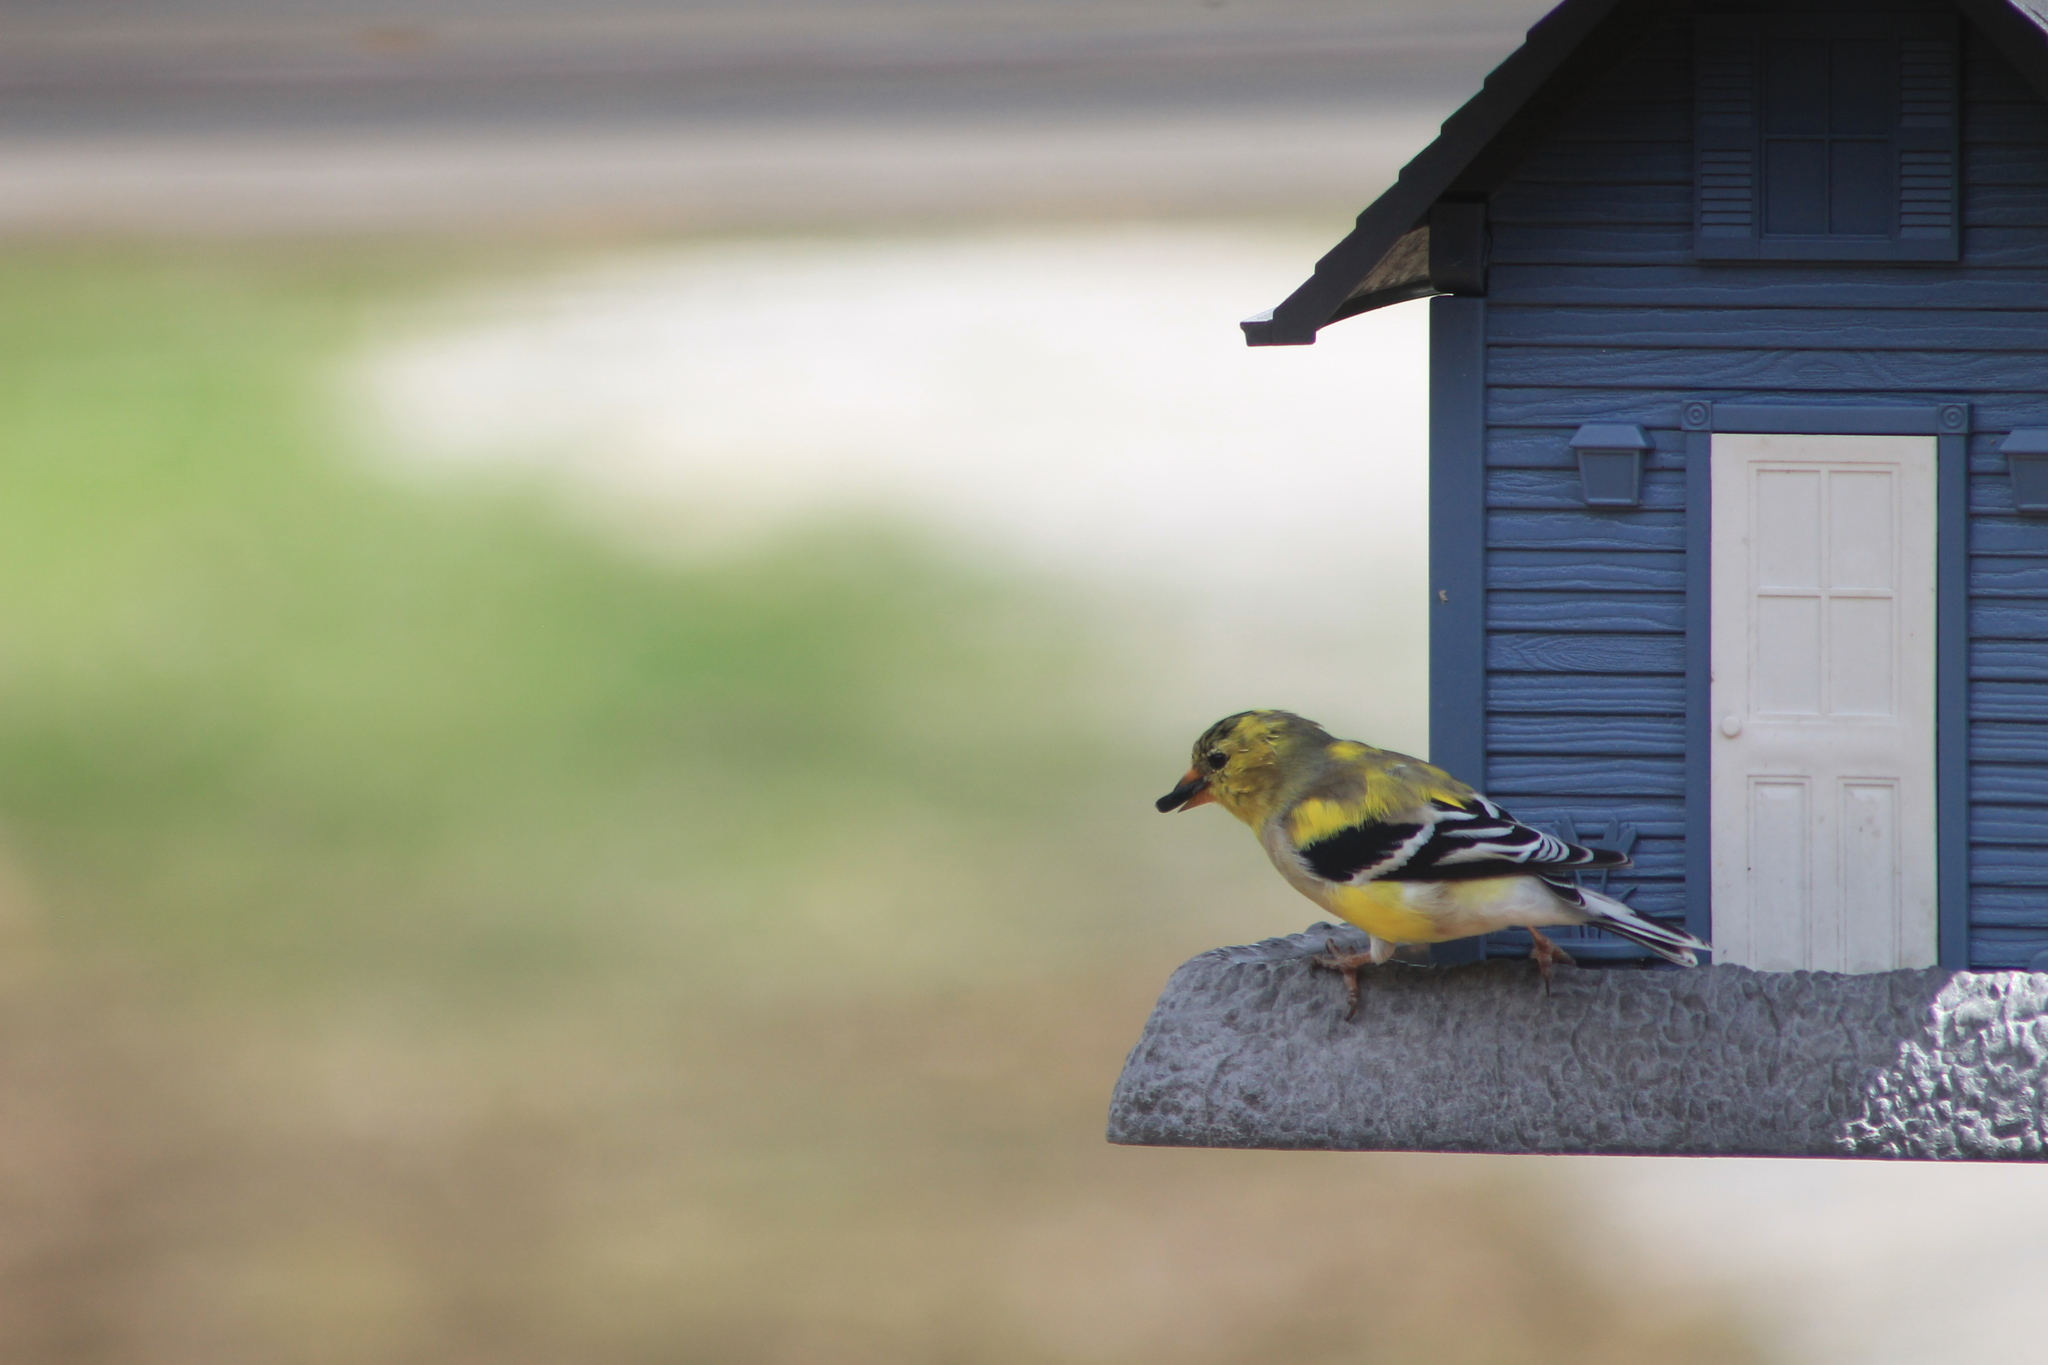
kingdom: Animalia
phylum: Chordata
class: Aves
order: Passeriformes
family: Fringillidae
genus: Spinus
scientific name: Spinus tristis
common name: American goldfinch
